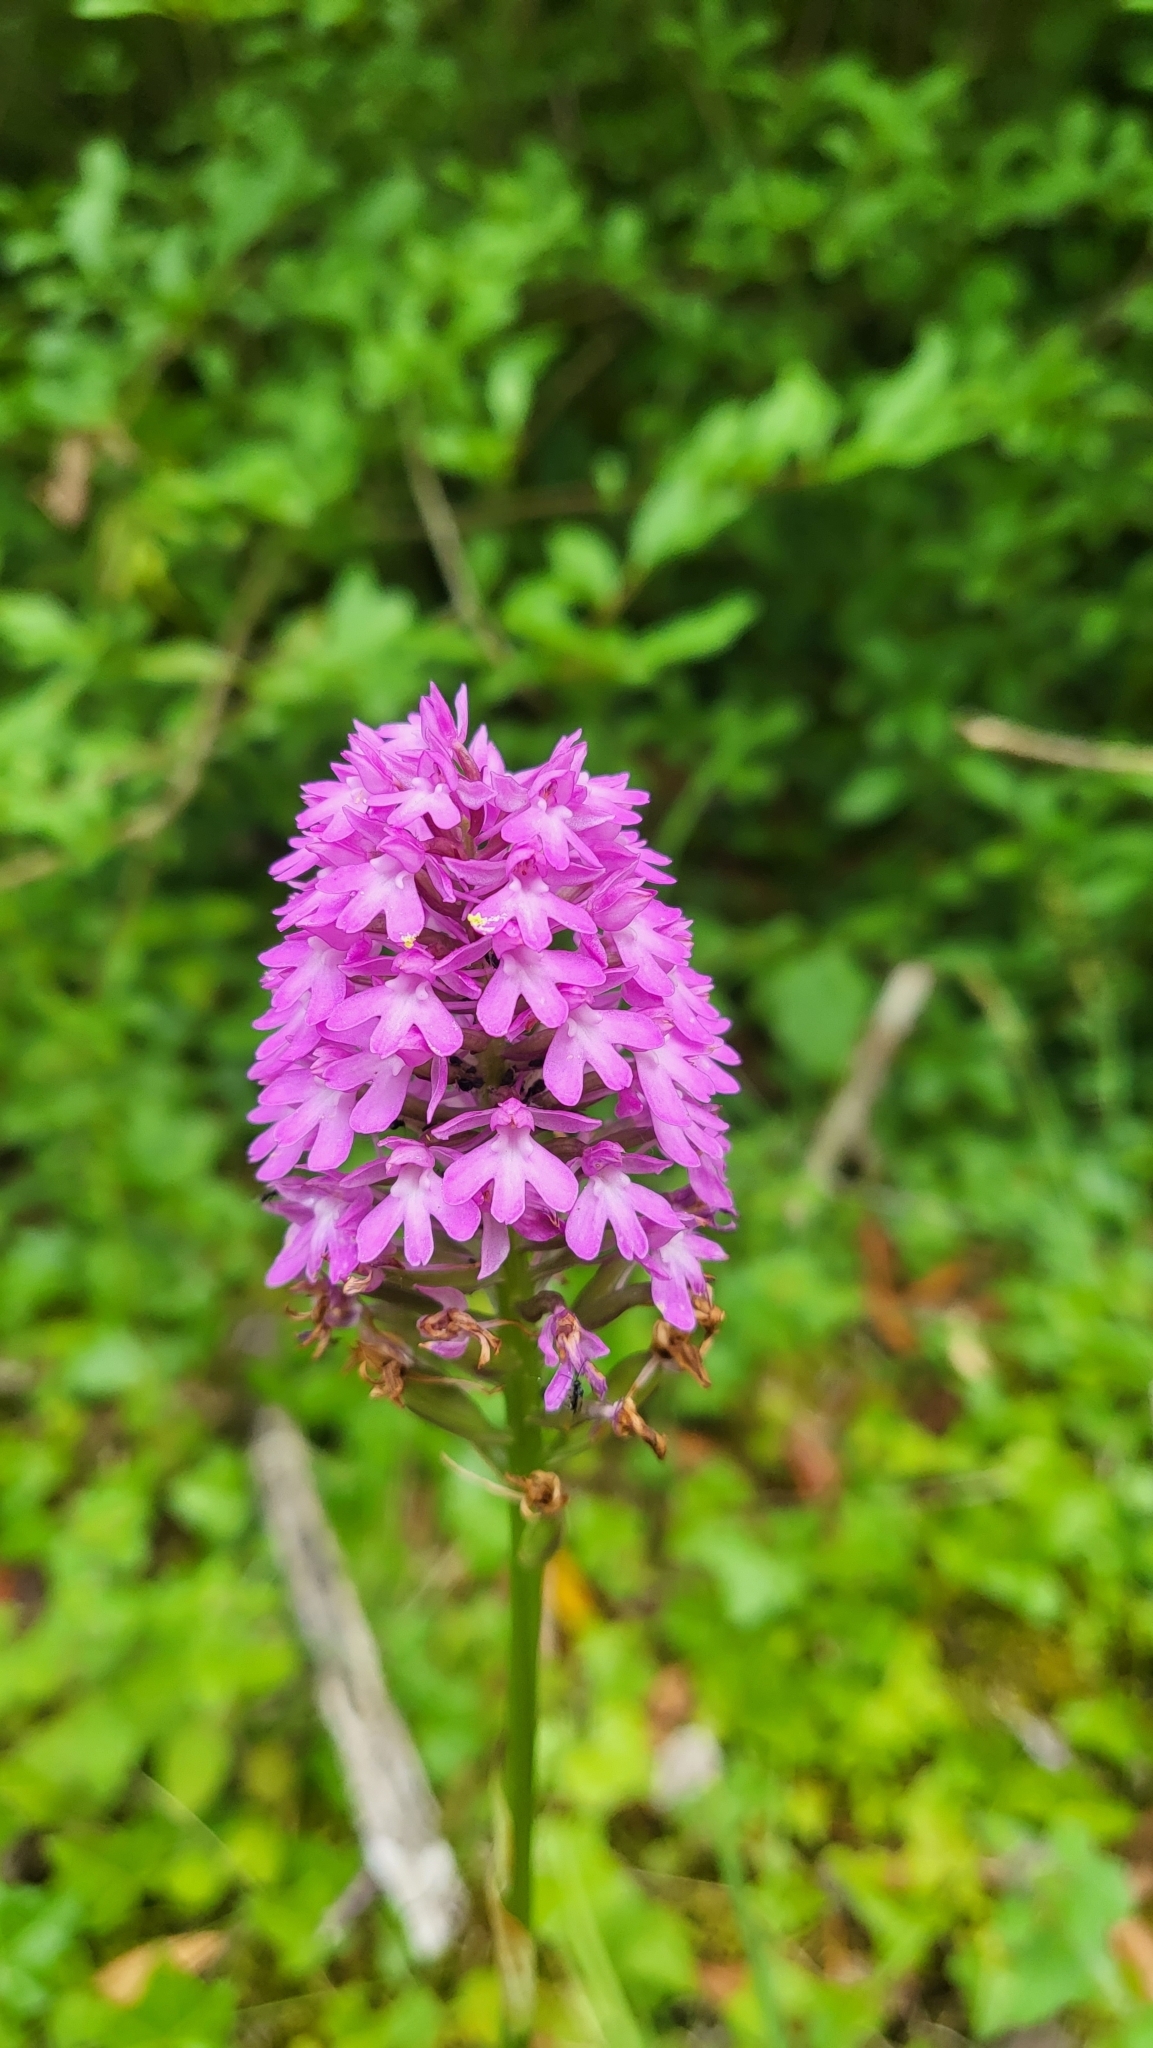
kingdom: Plantae
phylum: Tracheophyta
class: Liliopsida
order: Asparagales
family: Orchidaceae
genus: Anacamptis
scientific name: Anacamptis pyramidalis
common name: Pyramidal orchid
